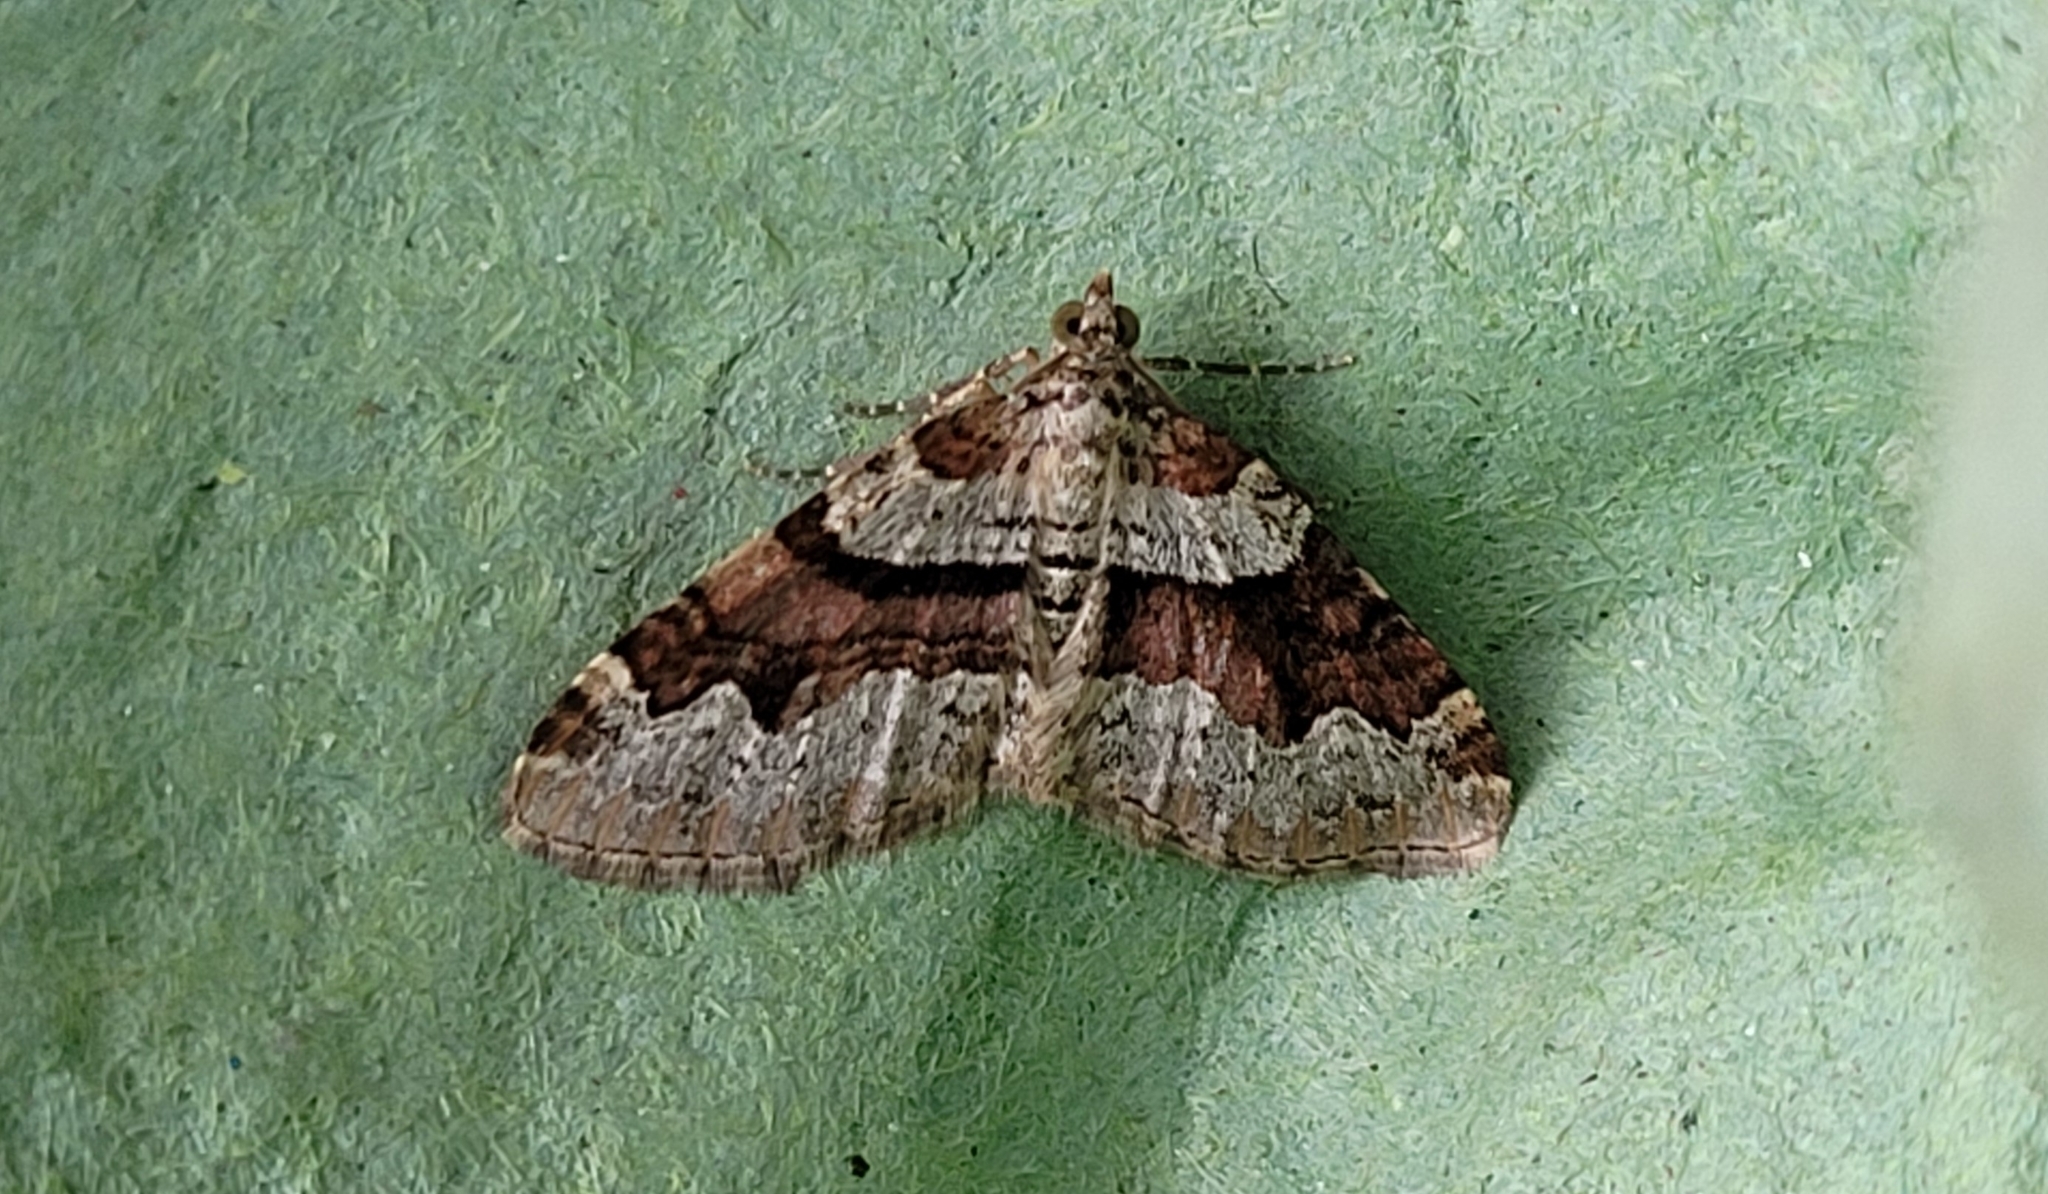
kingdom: Animalia
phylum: Arthropoda
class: Insecta
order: Lepidoptera
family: Geometridae
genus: Xanthorhoe
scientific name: Xanthorhoe designata
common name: Flame carpet
